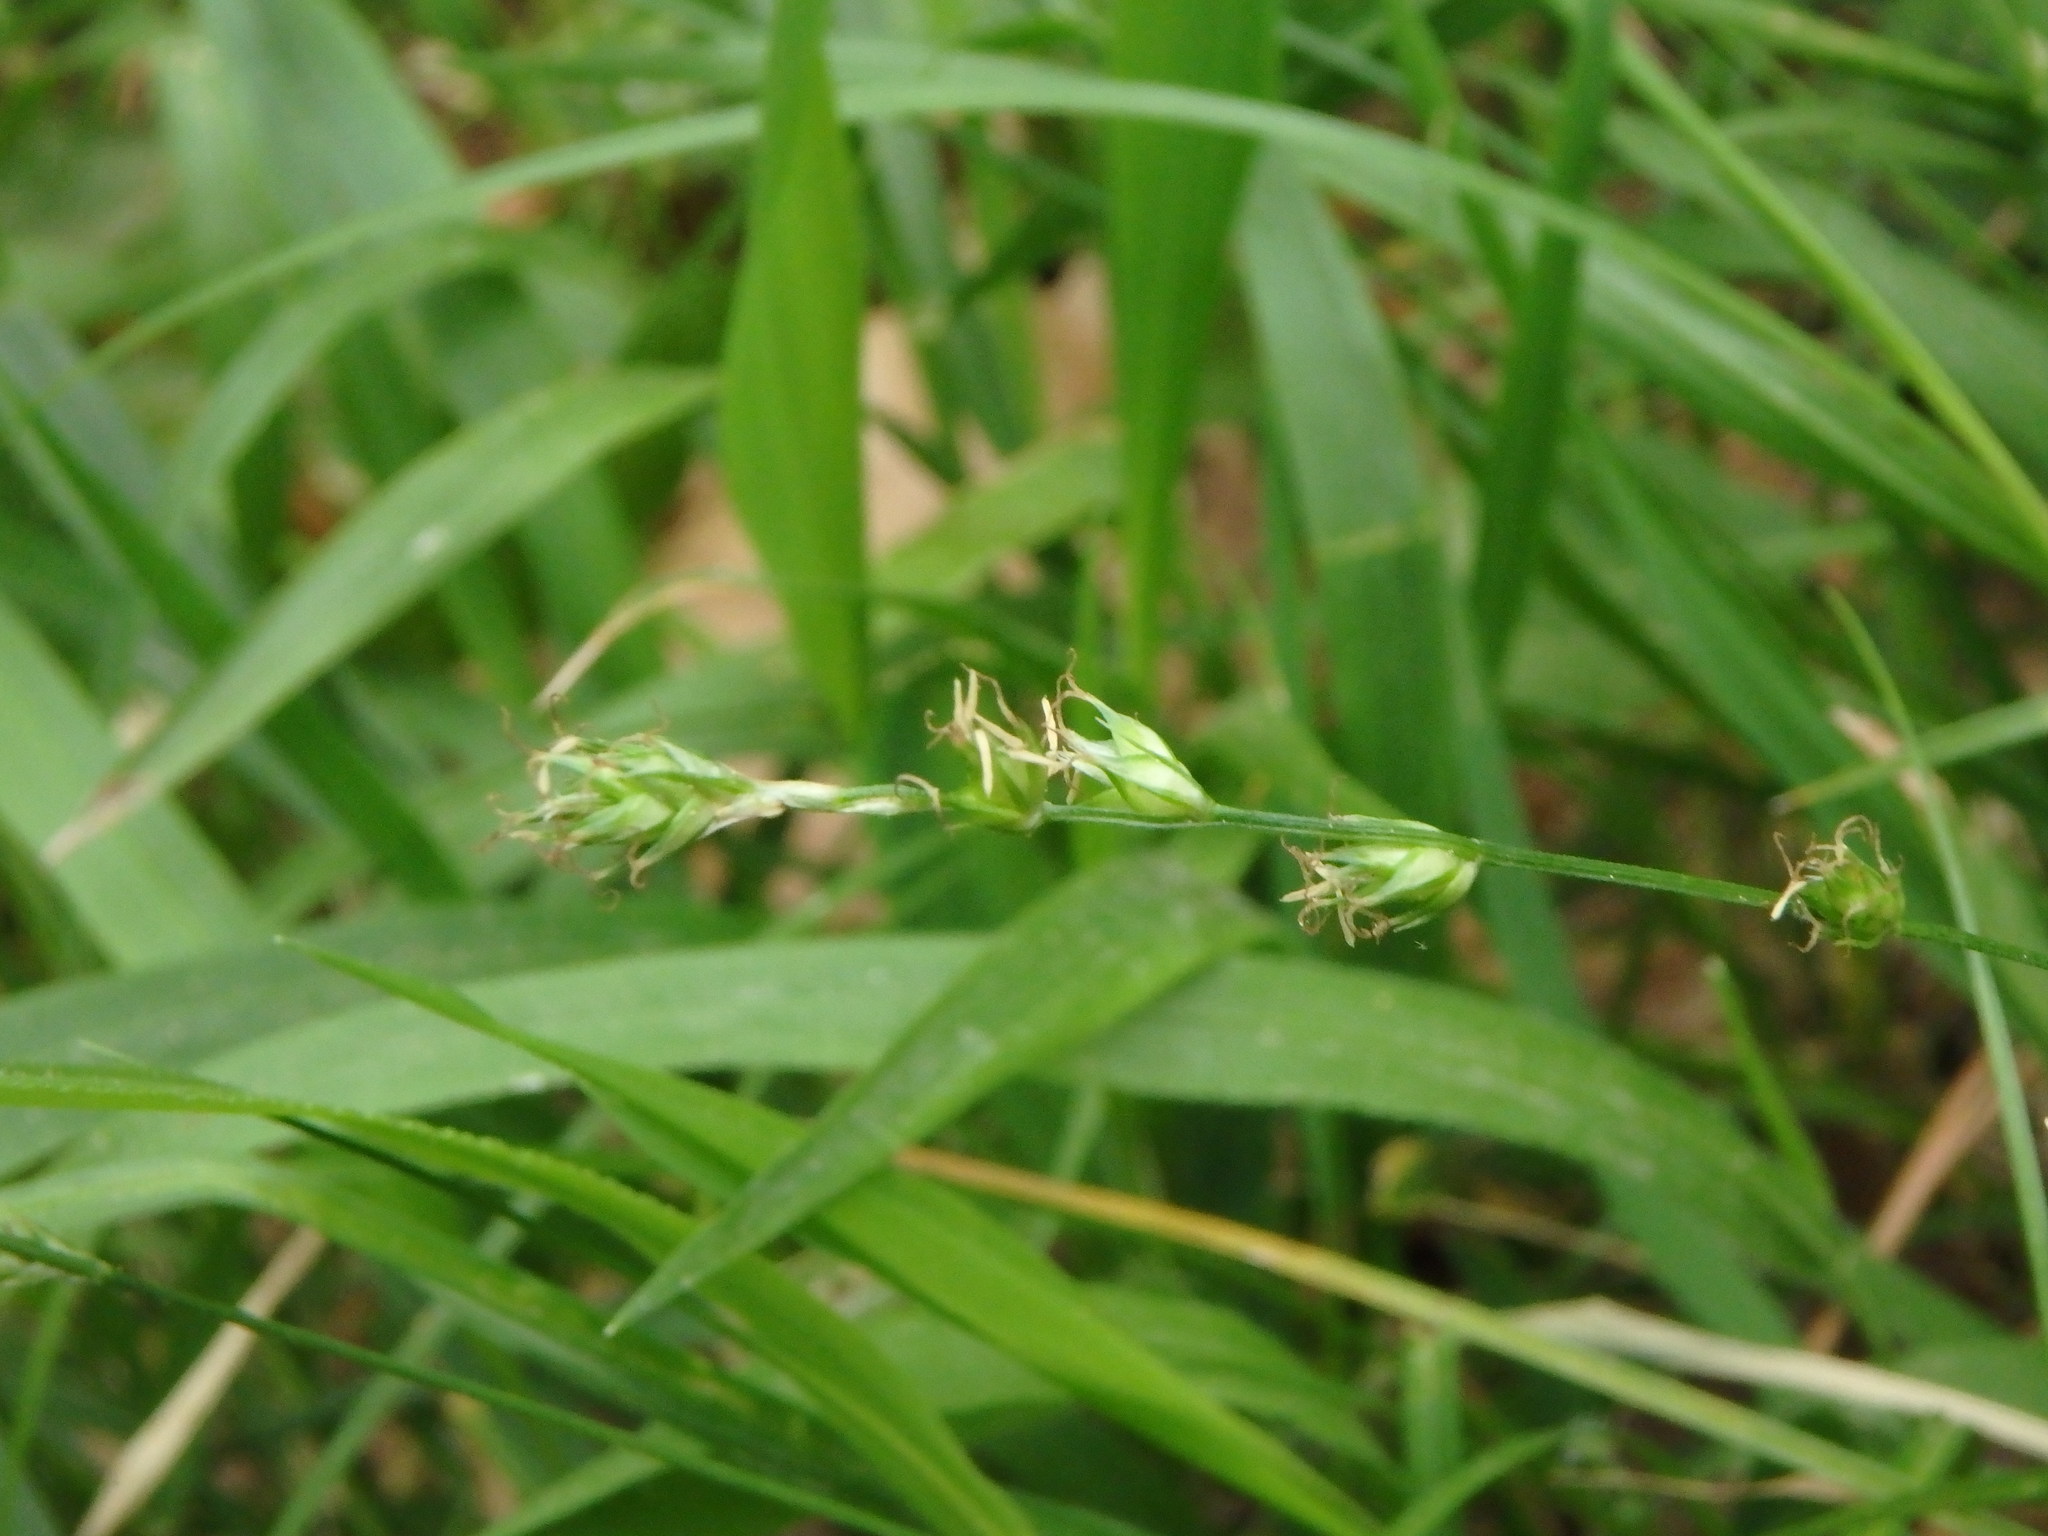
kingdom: Plantae
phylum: Tracheophyta
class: Liliopsida
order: Poales
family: Cyperaceae
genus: Carex
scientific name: Carex divulsa
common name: Grassland sedge
